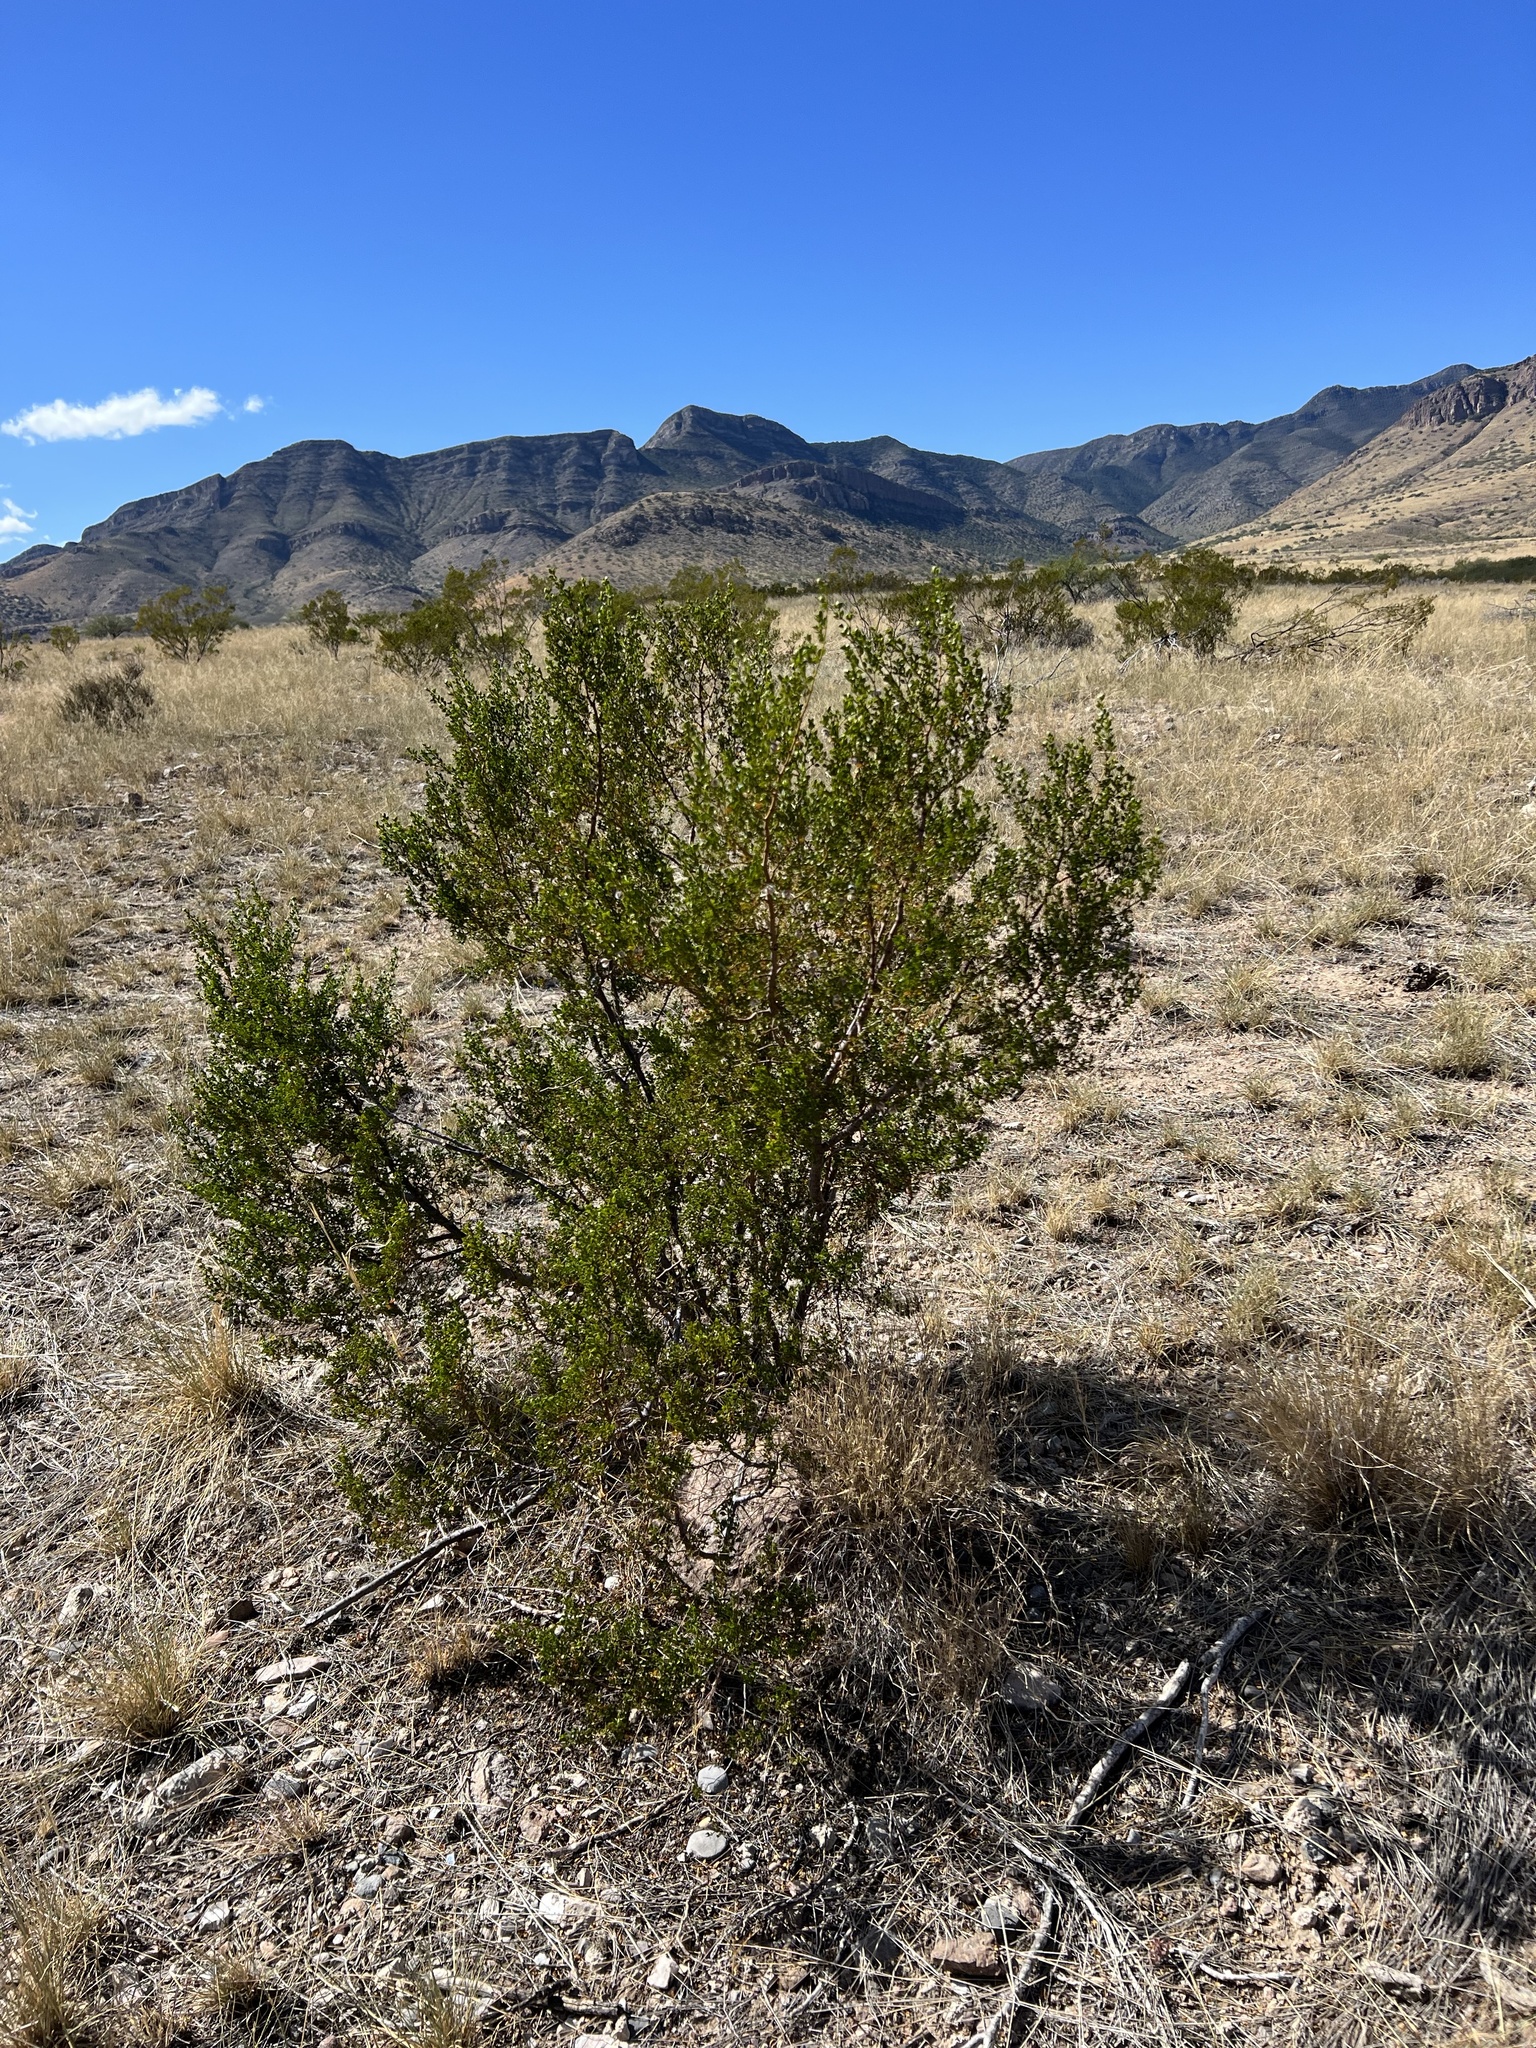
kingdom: Plantae
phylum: Tracheophyta
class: Magnoliopsida
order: Zygophyllales
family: Zygophyllaceae
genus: Larrea
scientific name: Larrea tridentata
